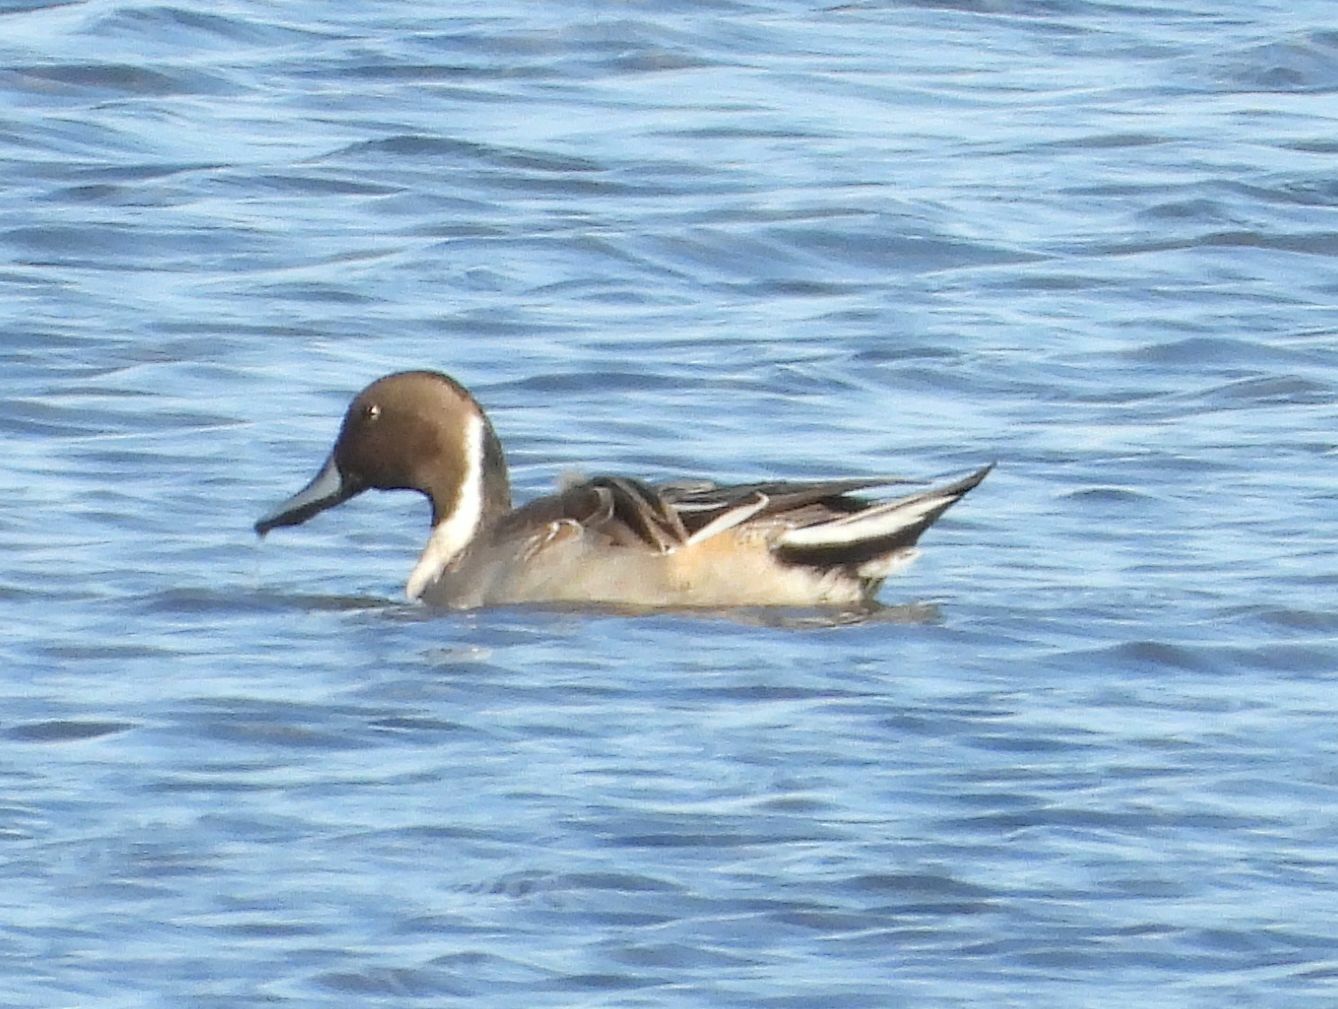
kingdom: Animalia
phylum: Chordata
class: Aves
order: Anseriformes
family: Anatidae
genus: Anas
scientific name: Anas acuta
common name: Northern pintail
